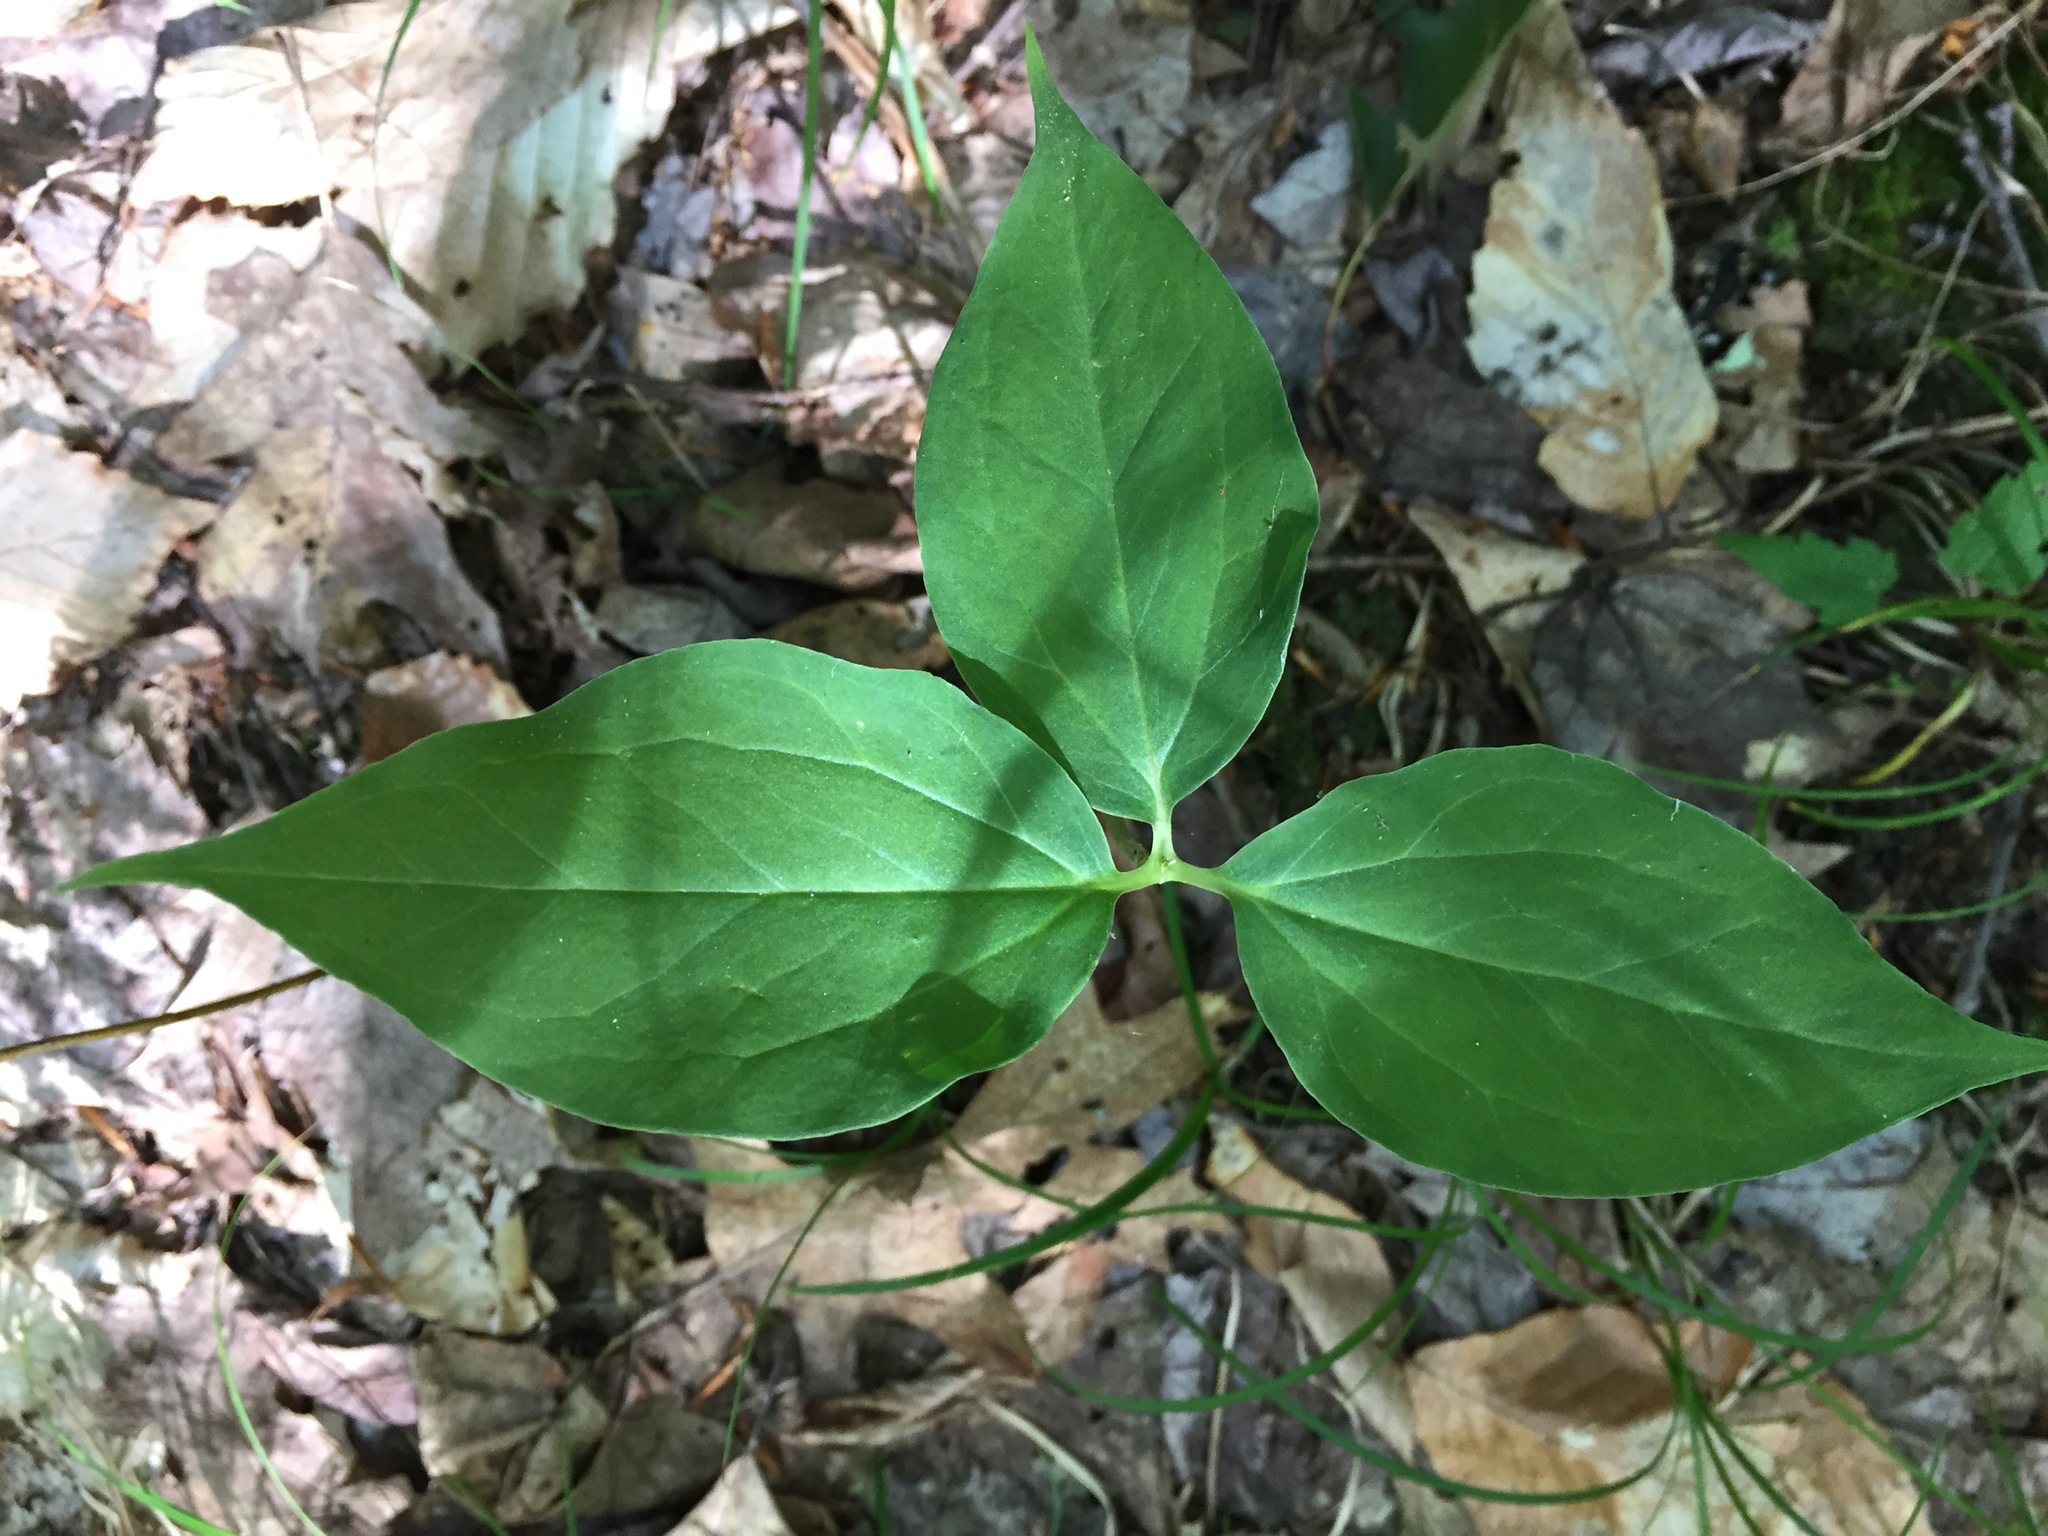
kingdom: Plantae
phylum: Tracheophyta
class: Liliopsida
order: Liliales
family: Melanthiaceae
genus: Trillium
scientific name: Trillium undulatum
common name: Paint trillium
